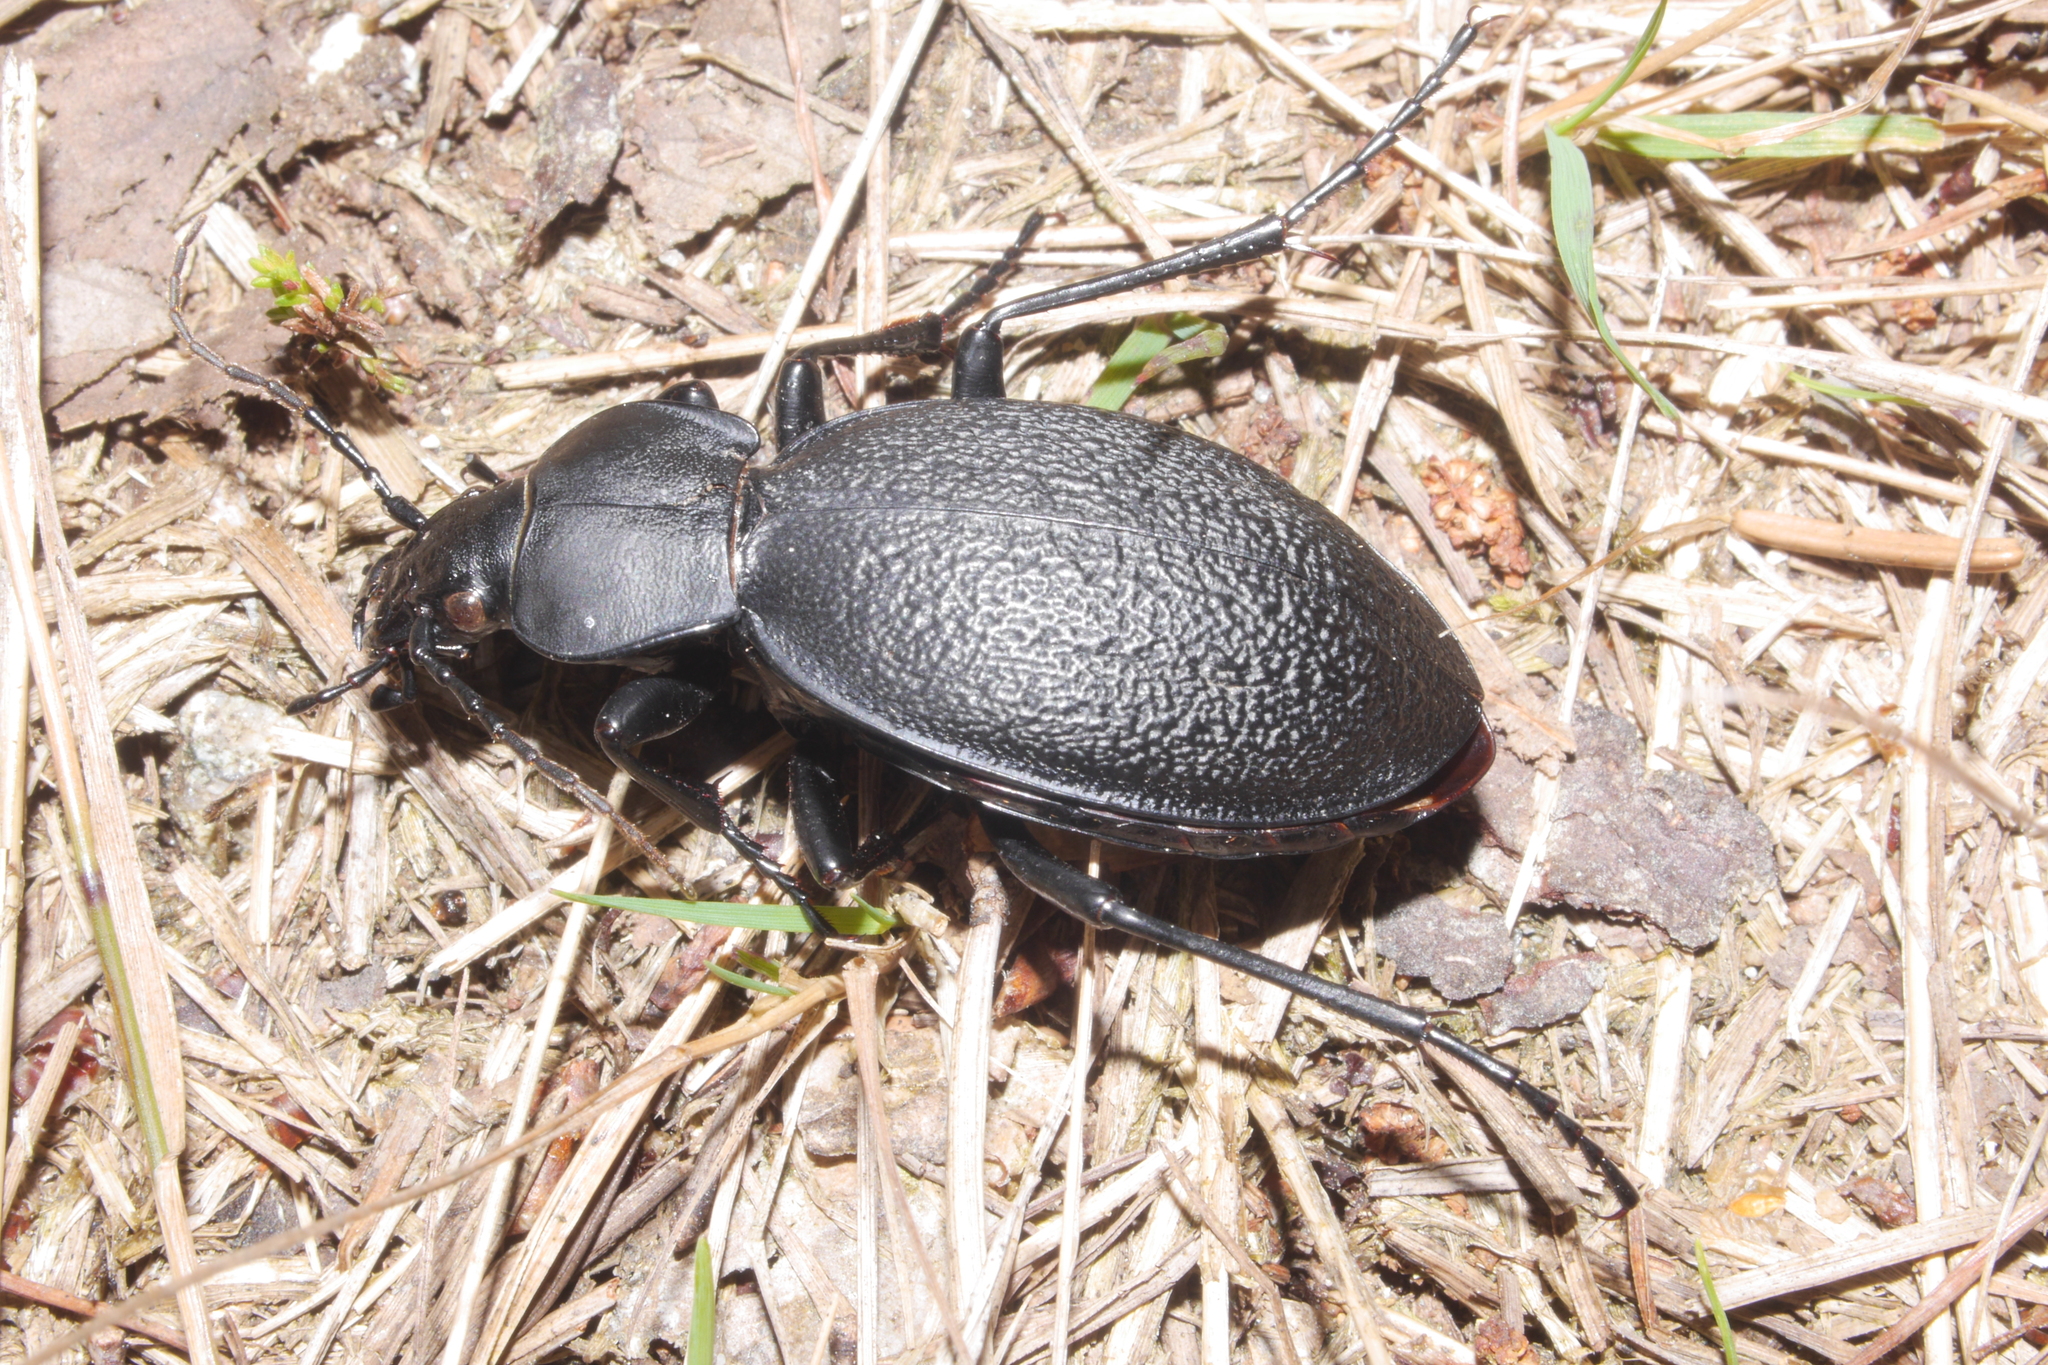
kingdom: Animalia
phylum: Arthropoda
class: Insecta
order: Coleoptera
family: Carabidae
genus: Carabus
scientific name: Carabus coriaceus
